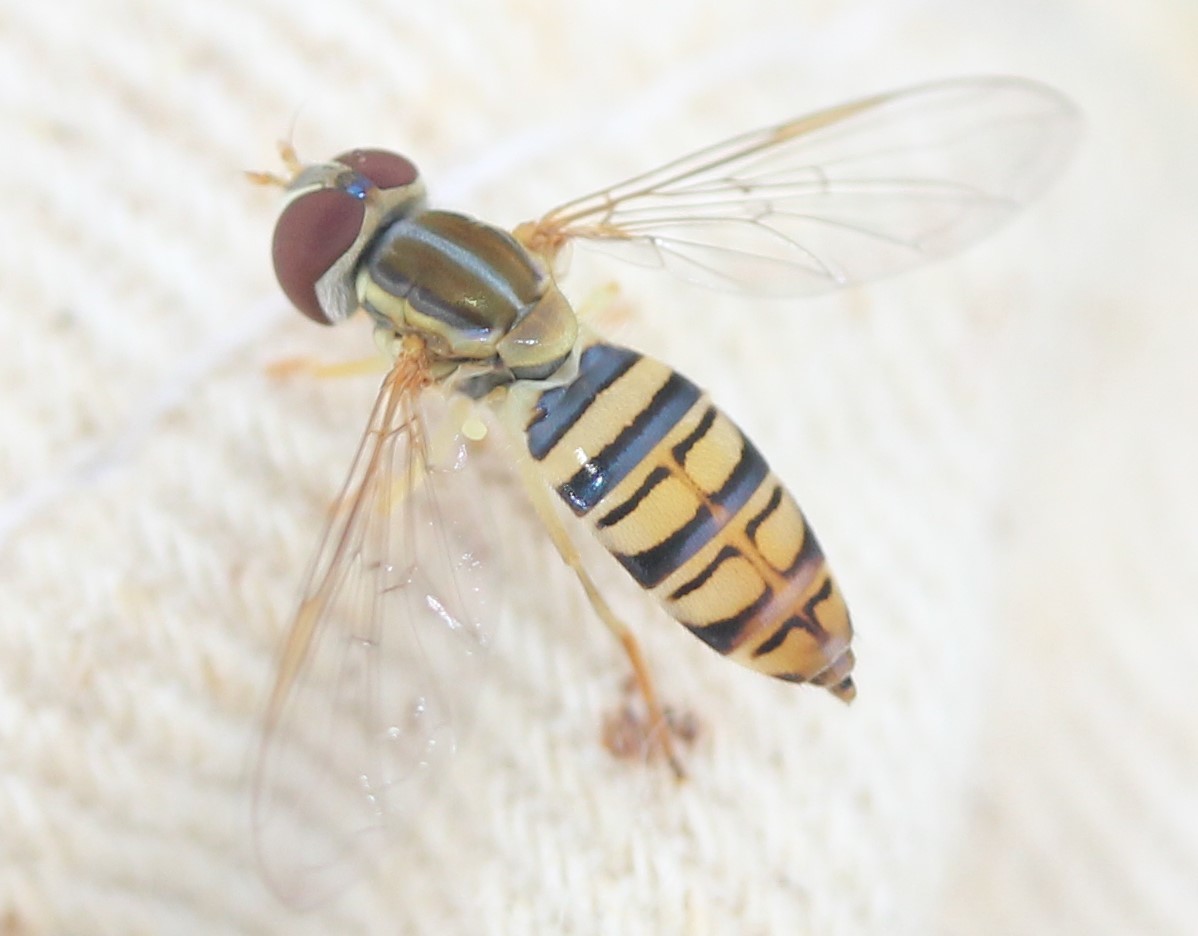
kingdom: Animalia
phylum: Arthropoda
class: Insecta
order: Diptera
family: Syrphidae
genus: Toxomerus
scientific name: Toxomerus politus
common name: Maize calligrapher
